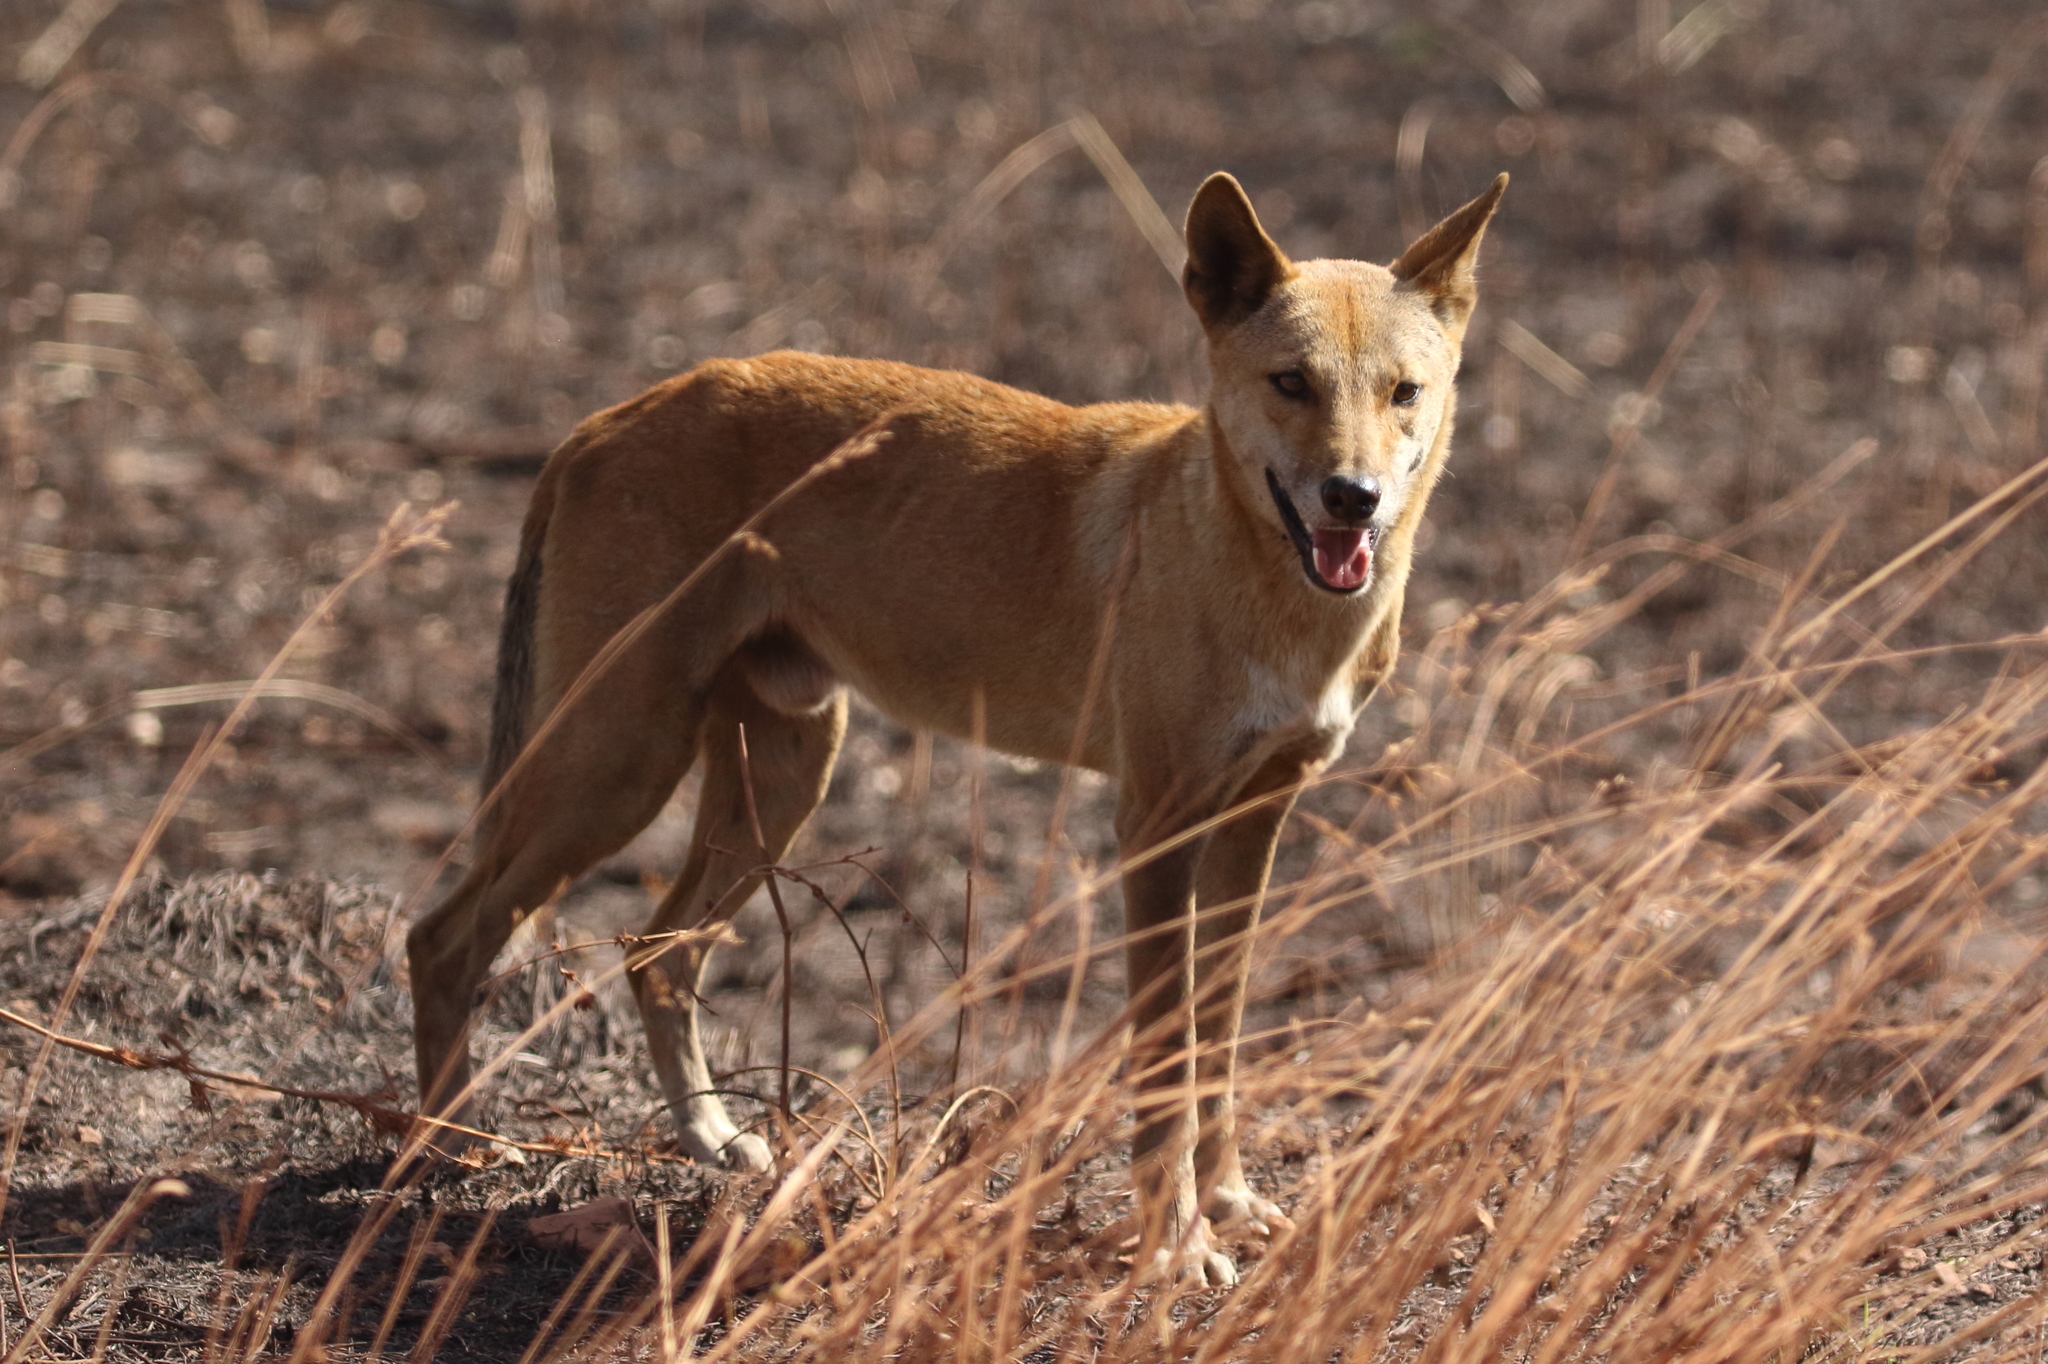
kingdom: Animalia
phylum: Chordata
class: Mammalia
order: Carnivora
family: Canidae
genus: Canis
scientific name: Canis lupus
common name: Gray wolf
